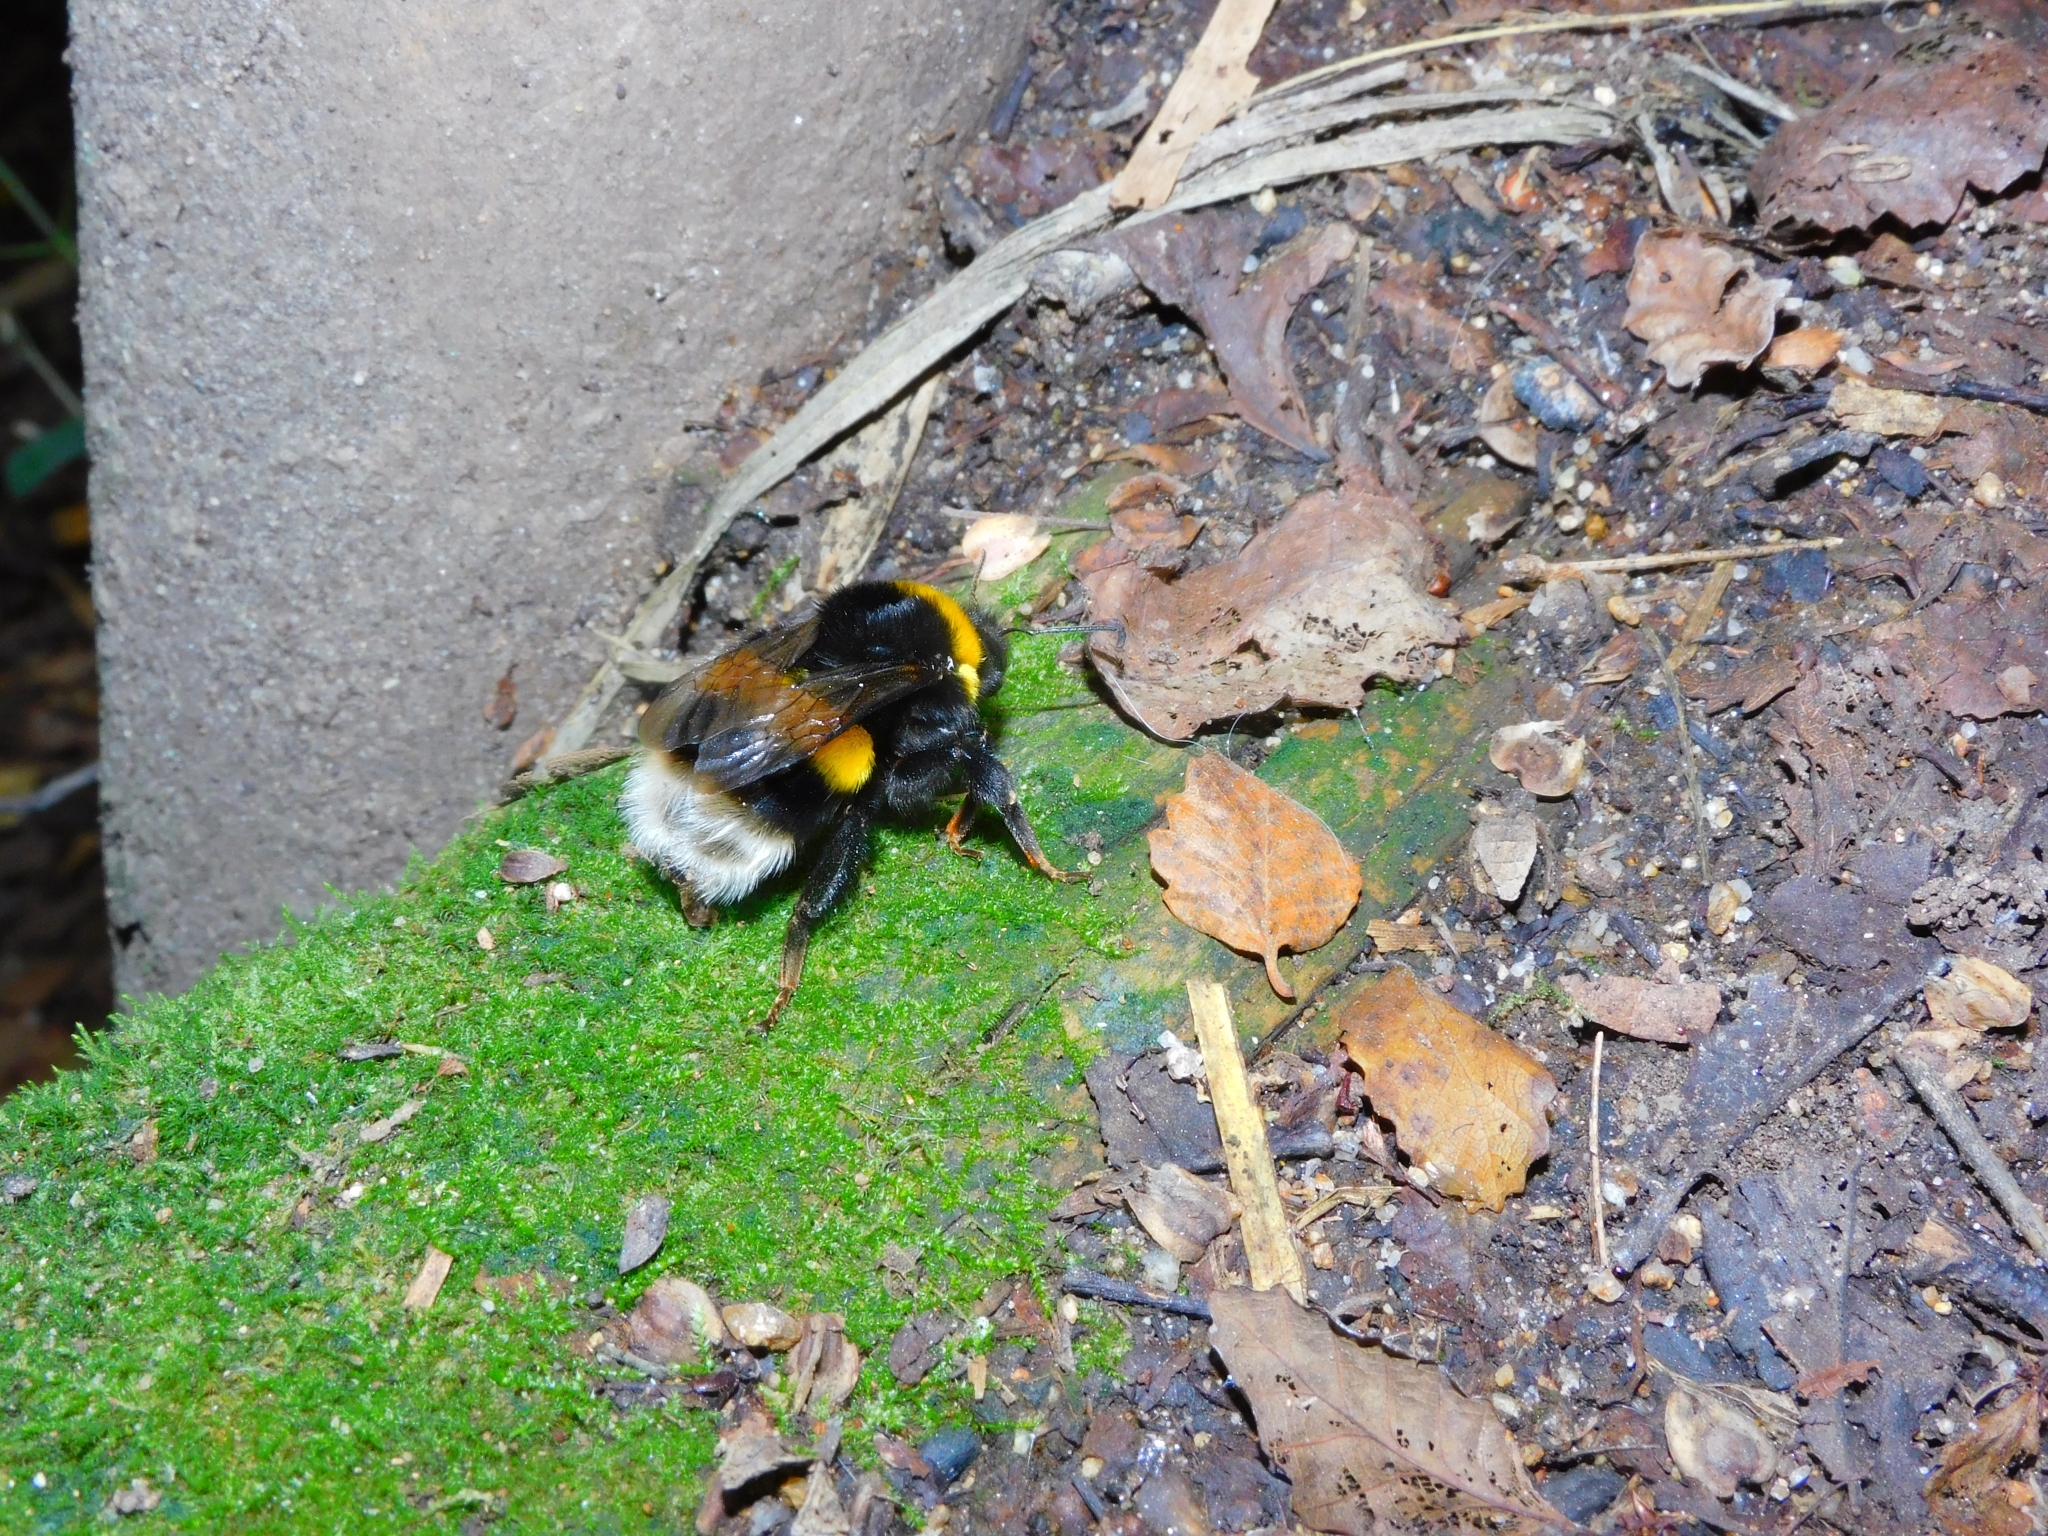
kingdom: Animalia
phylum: Arthropoda
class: Insecta
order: Hymenoptera
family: Apidae
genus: Bombus
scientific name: Bombus terrestris
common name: Buff-tailed bumblebee
